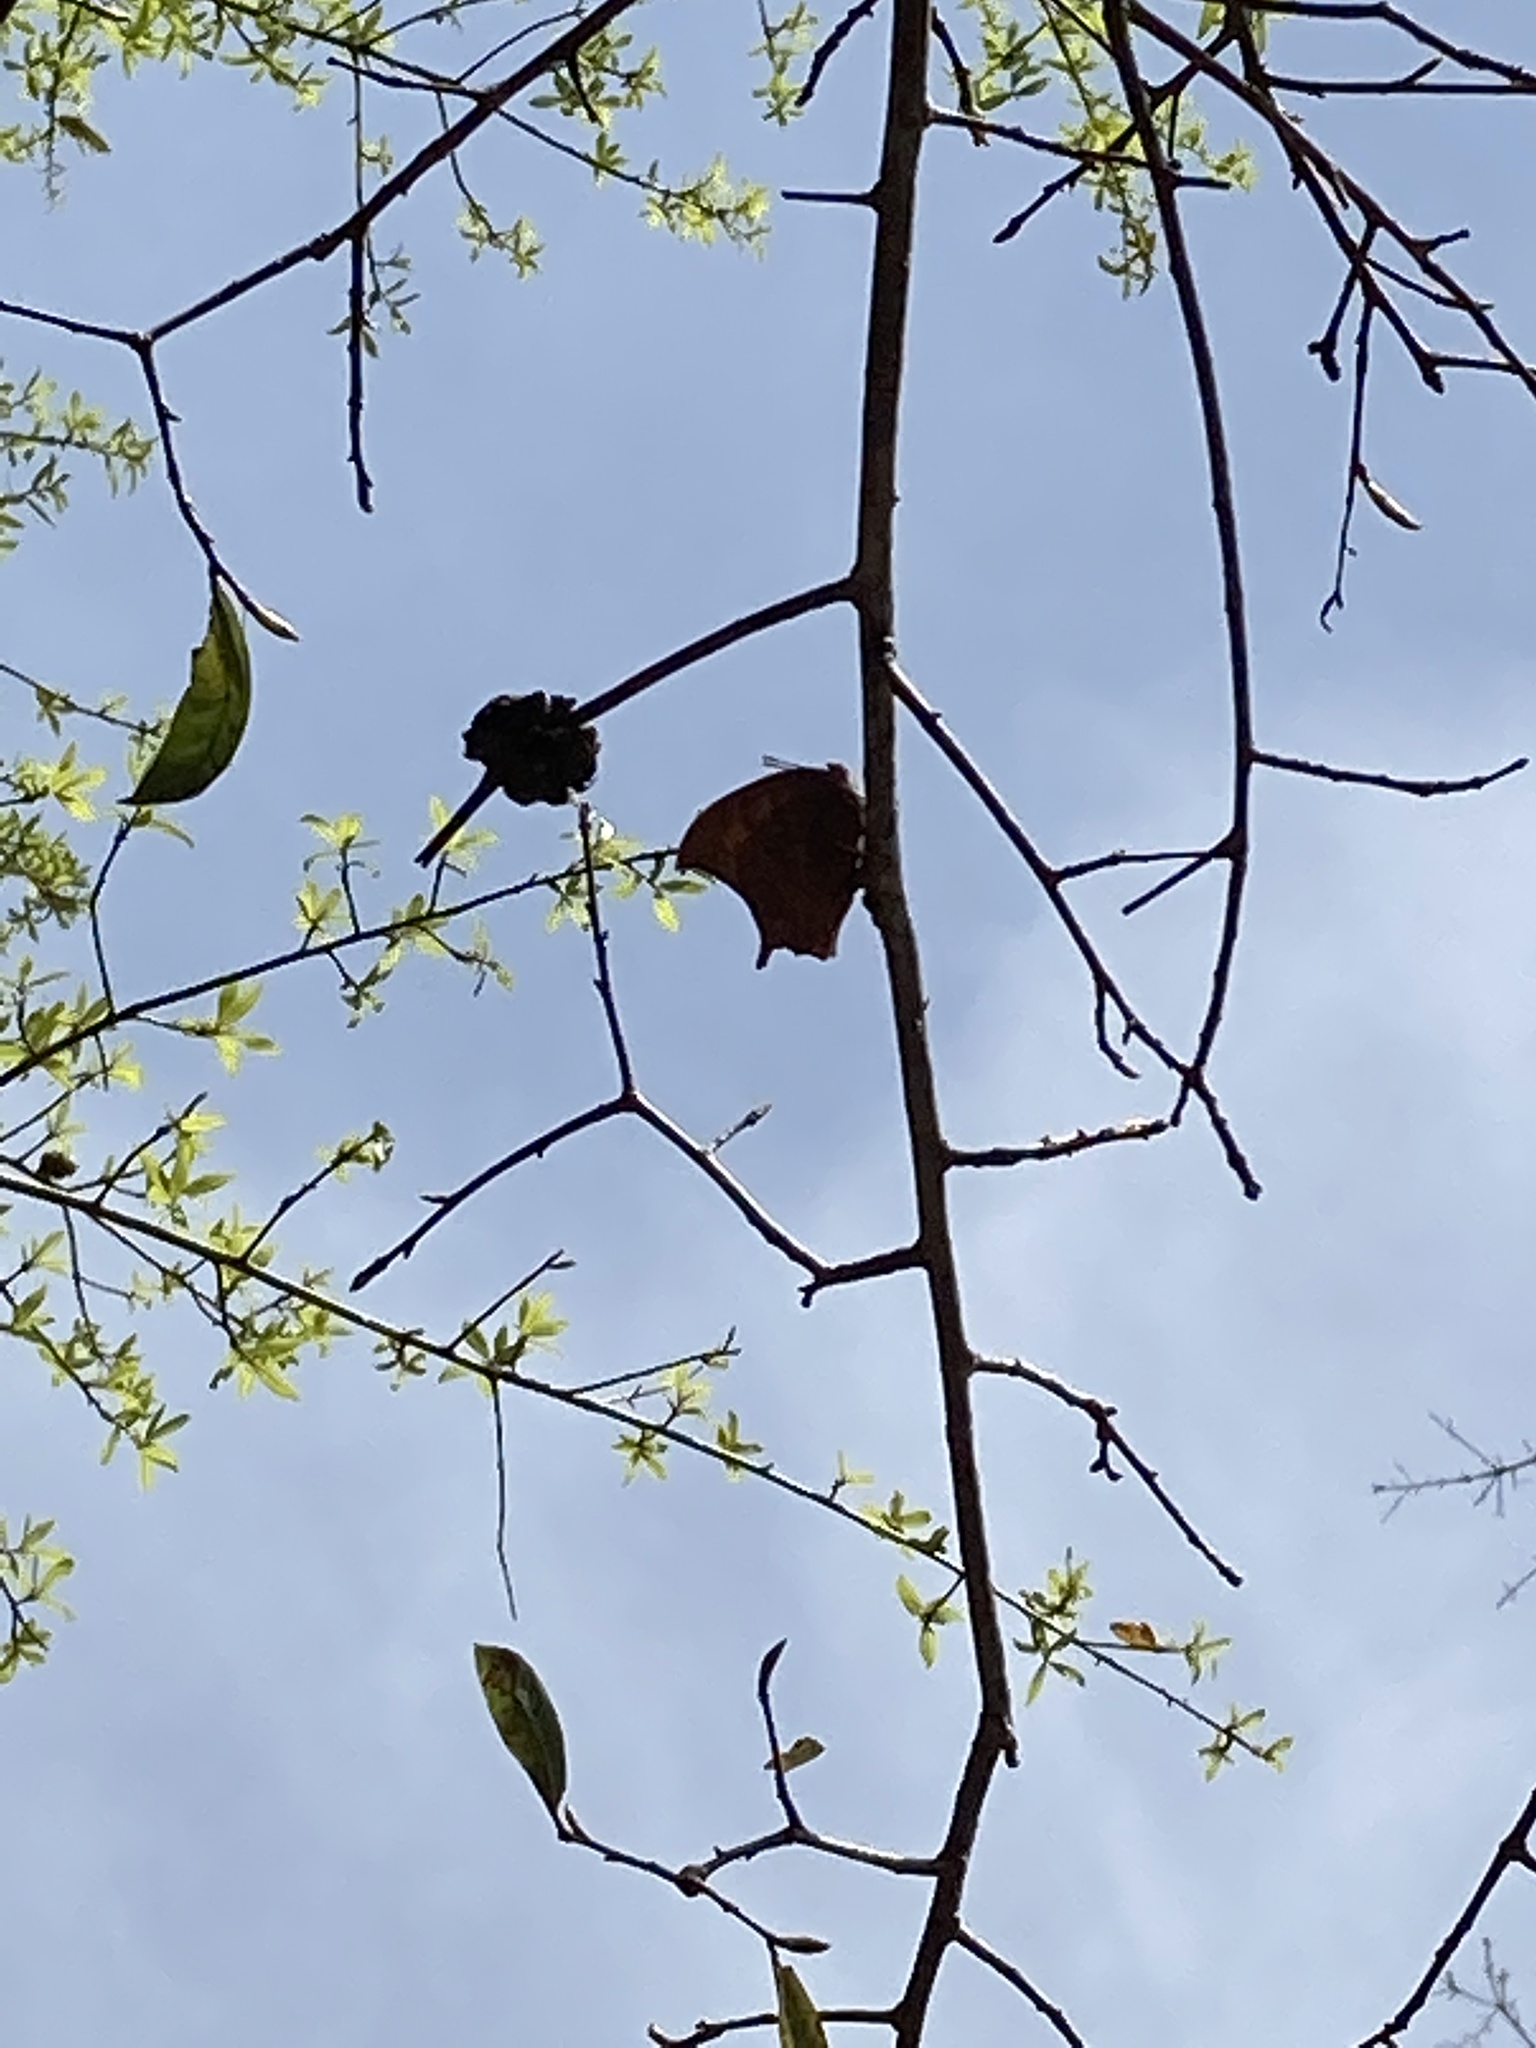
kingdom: Animalia
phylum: Arthropoda
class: Insecta
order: Lepidoptera
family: Nymphalidae
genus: Anaea
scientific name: Anaea andria
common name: Goatweed leafwing
